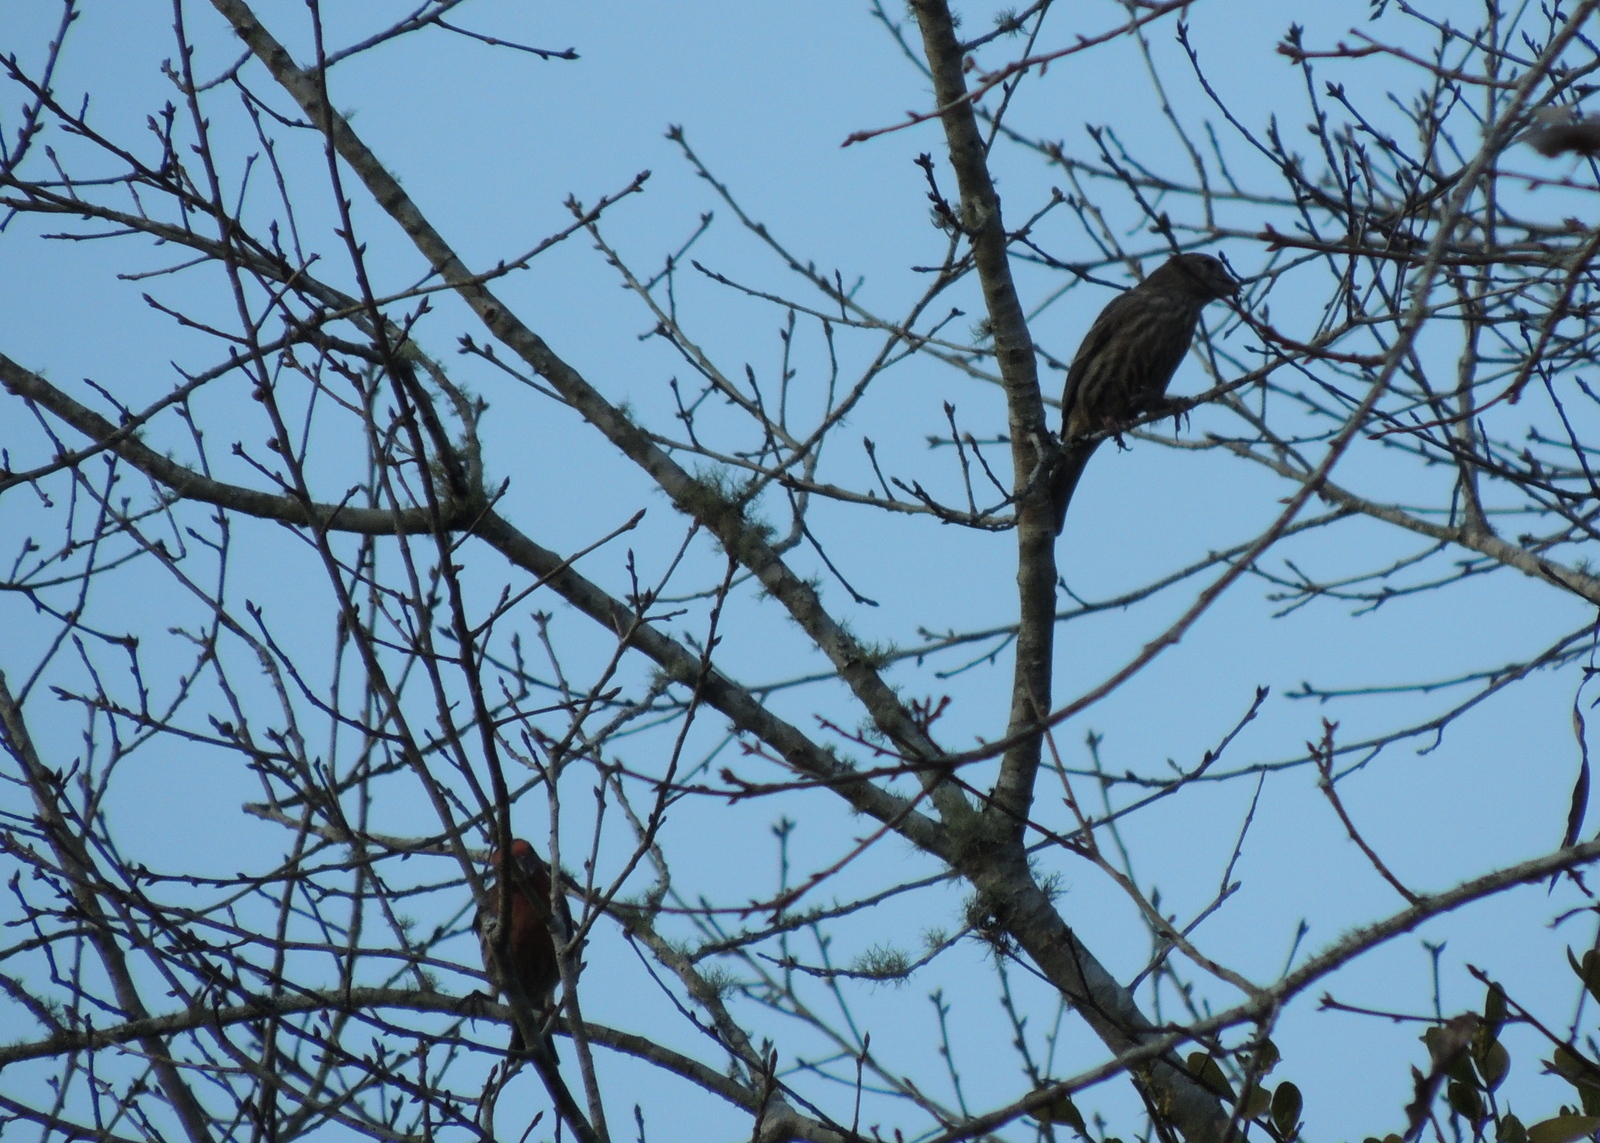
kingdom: Animalia
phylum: Chordata
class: Aves
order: Passeriformes
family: Fringillidae
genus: Haemorhous
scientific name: Haemorhous mexicanus
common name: House finch
